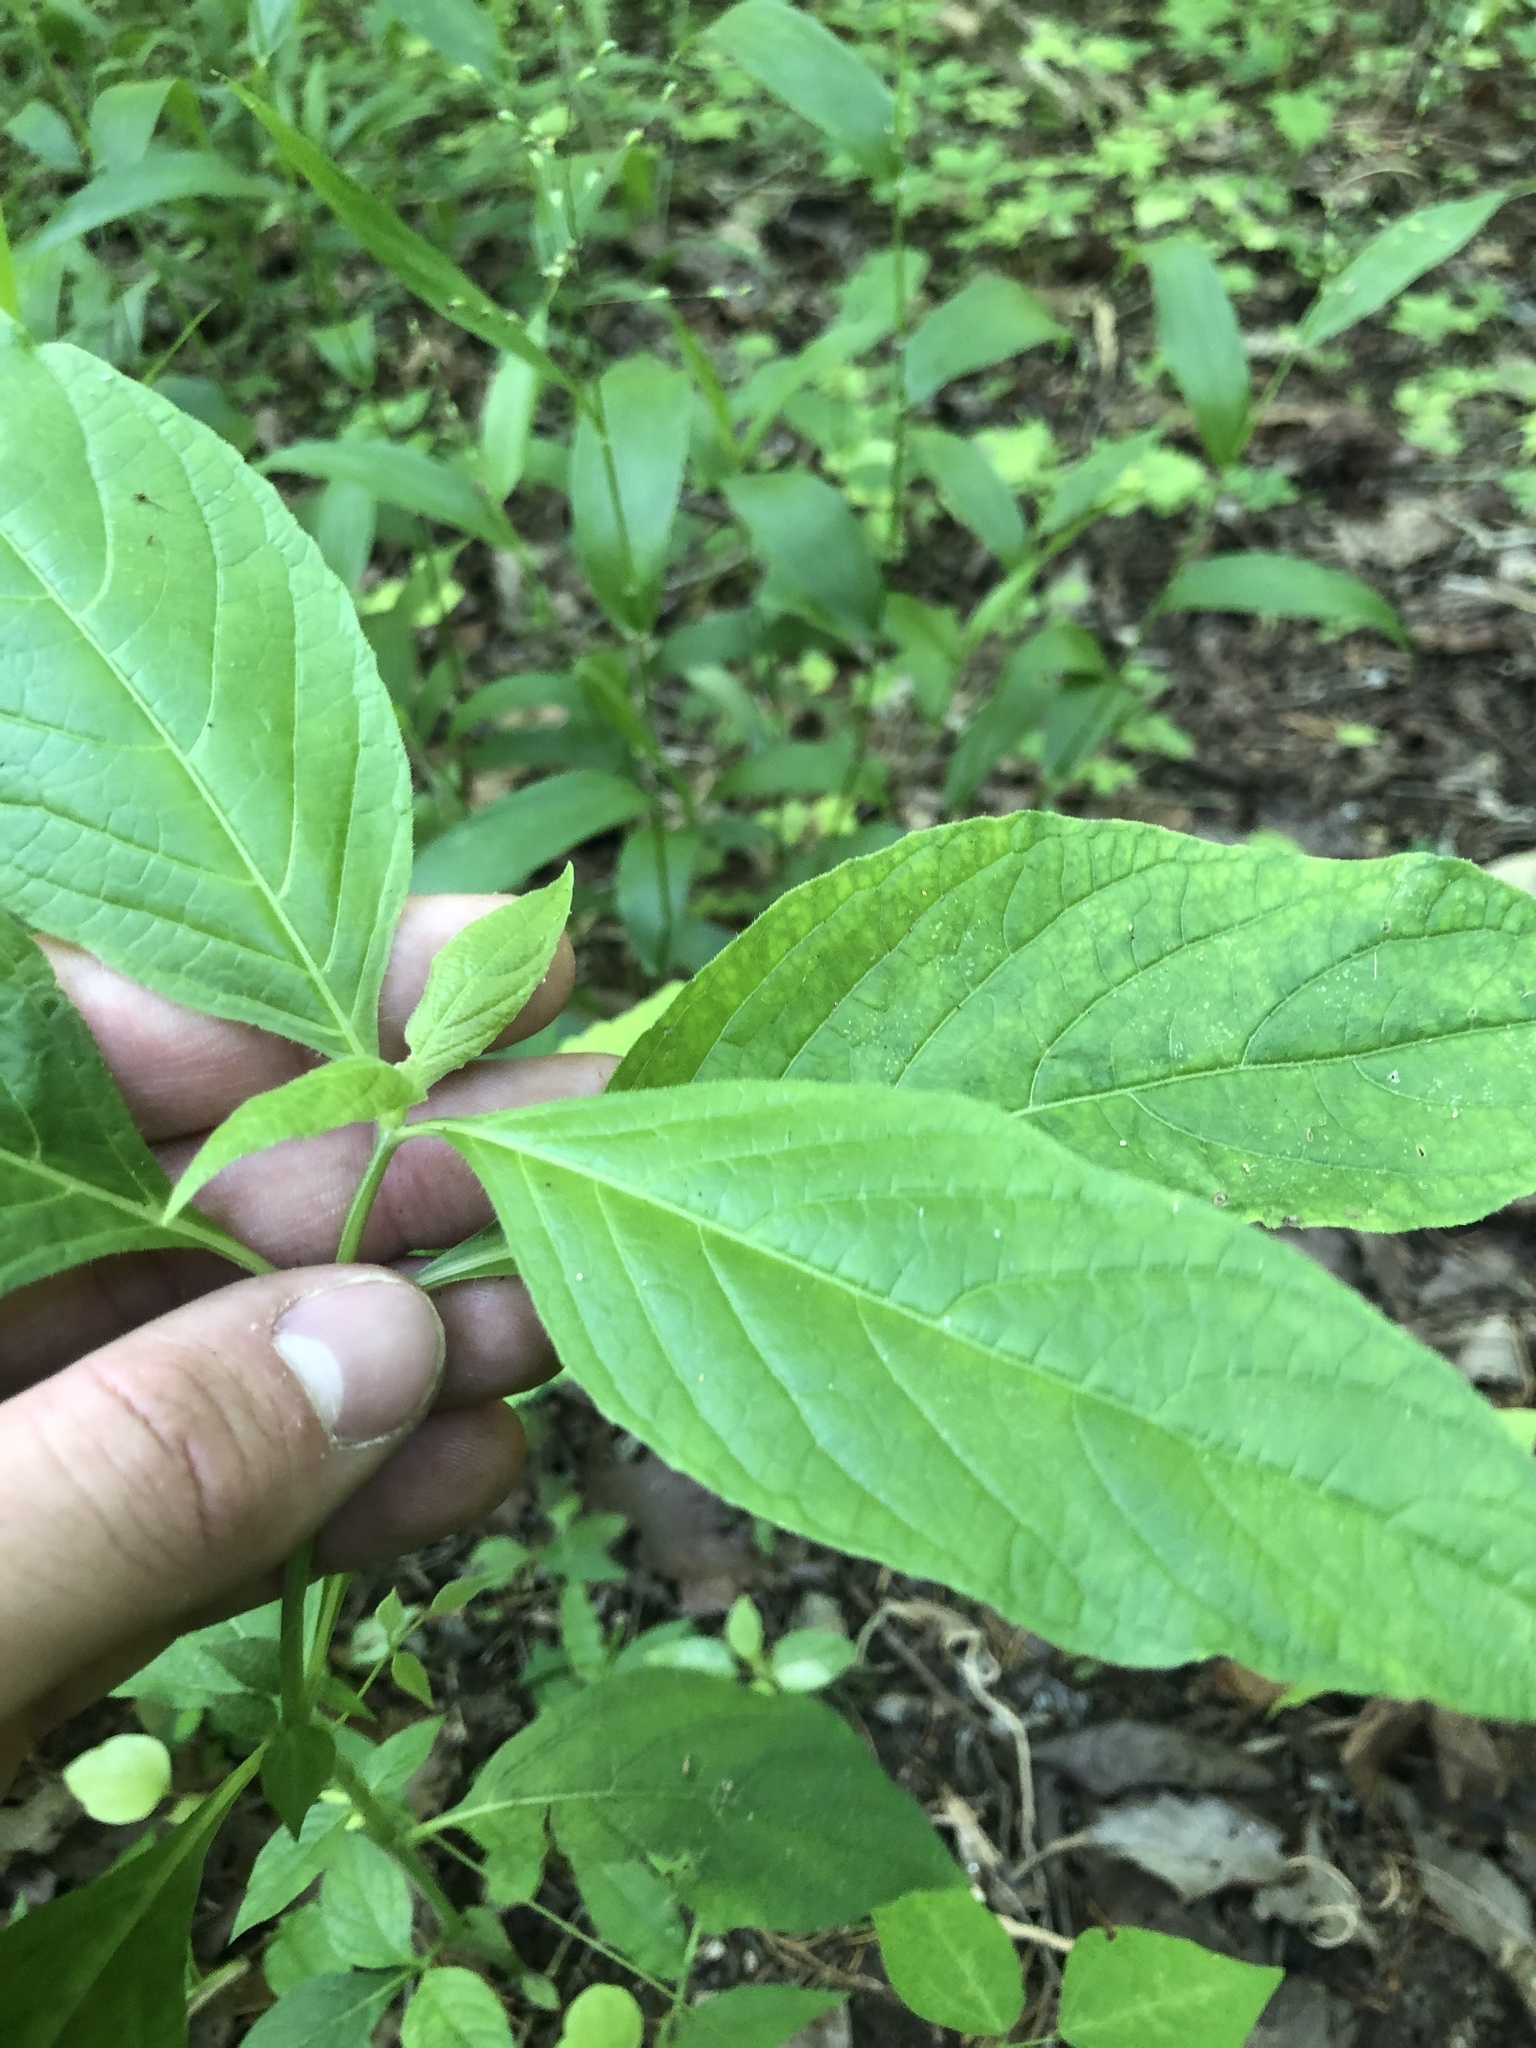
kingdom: Plantae
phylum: Tracheophyta
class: Magnoliopsida
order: Lamiales
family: Acanthaceae
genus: Yeatesia
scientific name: Yeatesia viridiflora
